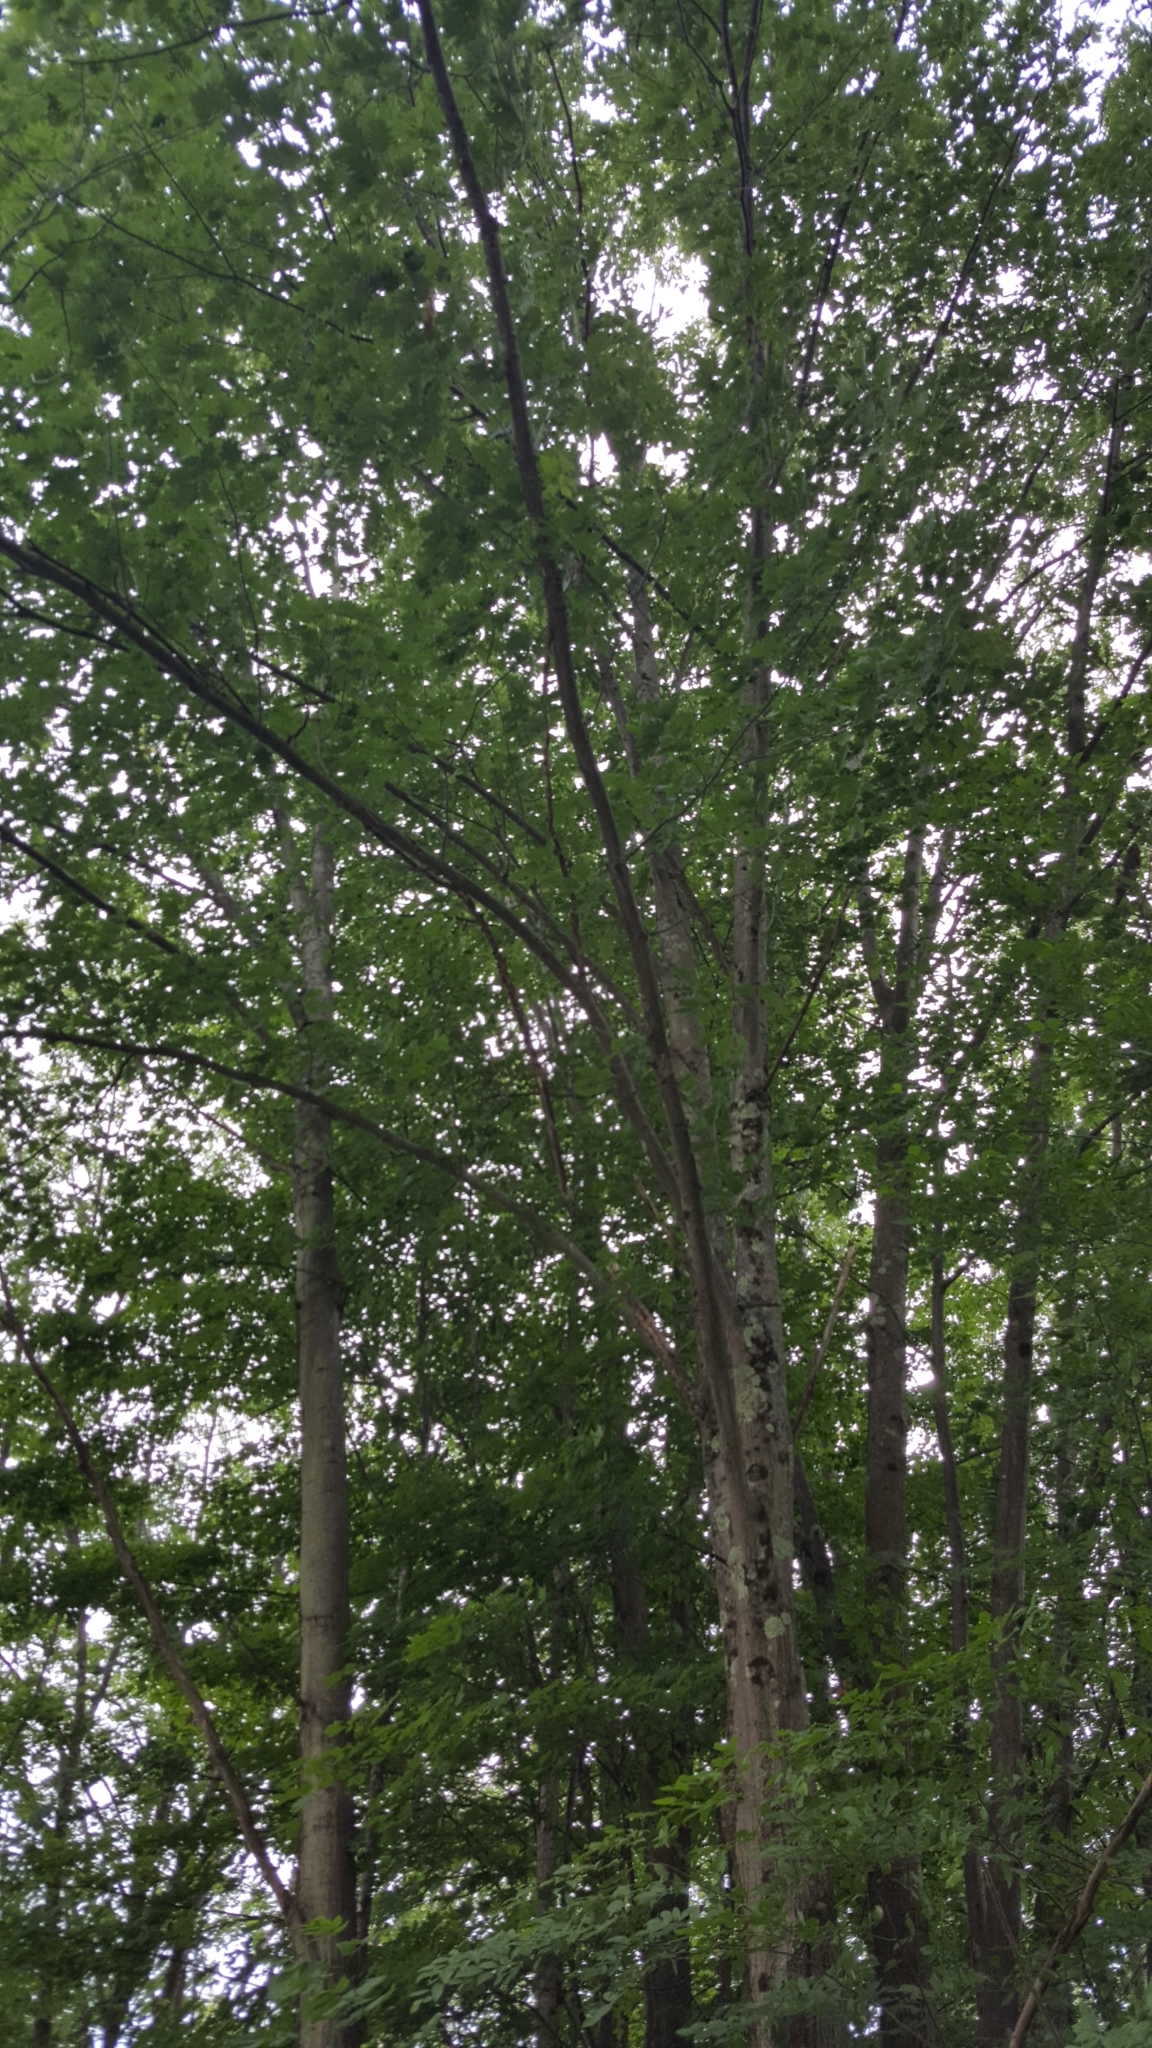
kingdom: Plantae
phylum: Tracheophyta
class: Magnoliopsida
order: Fagales
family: Fagaceae
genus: Quercus
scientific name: Quercus rubra
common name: Red oak
